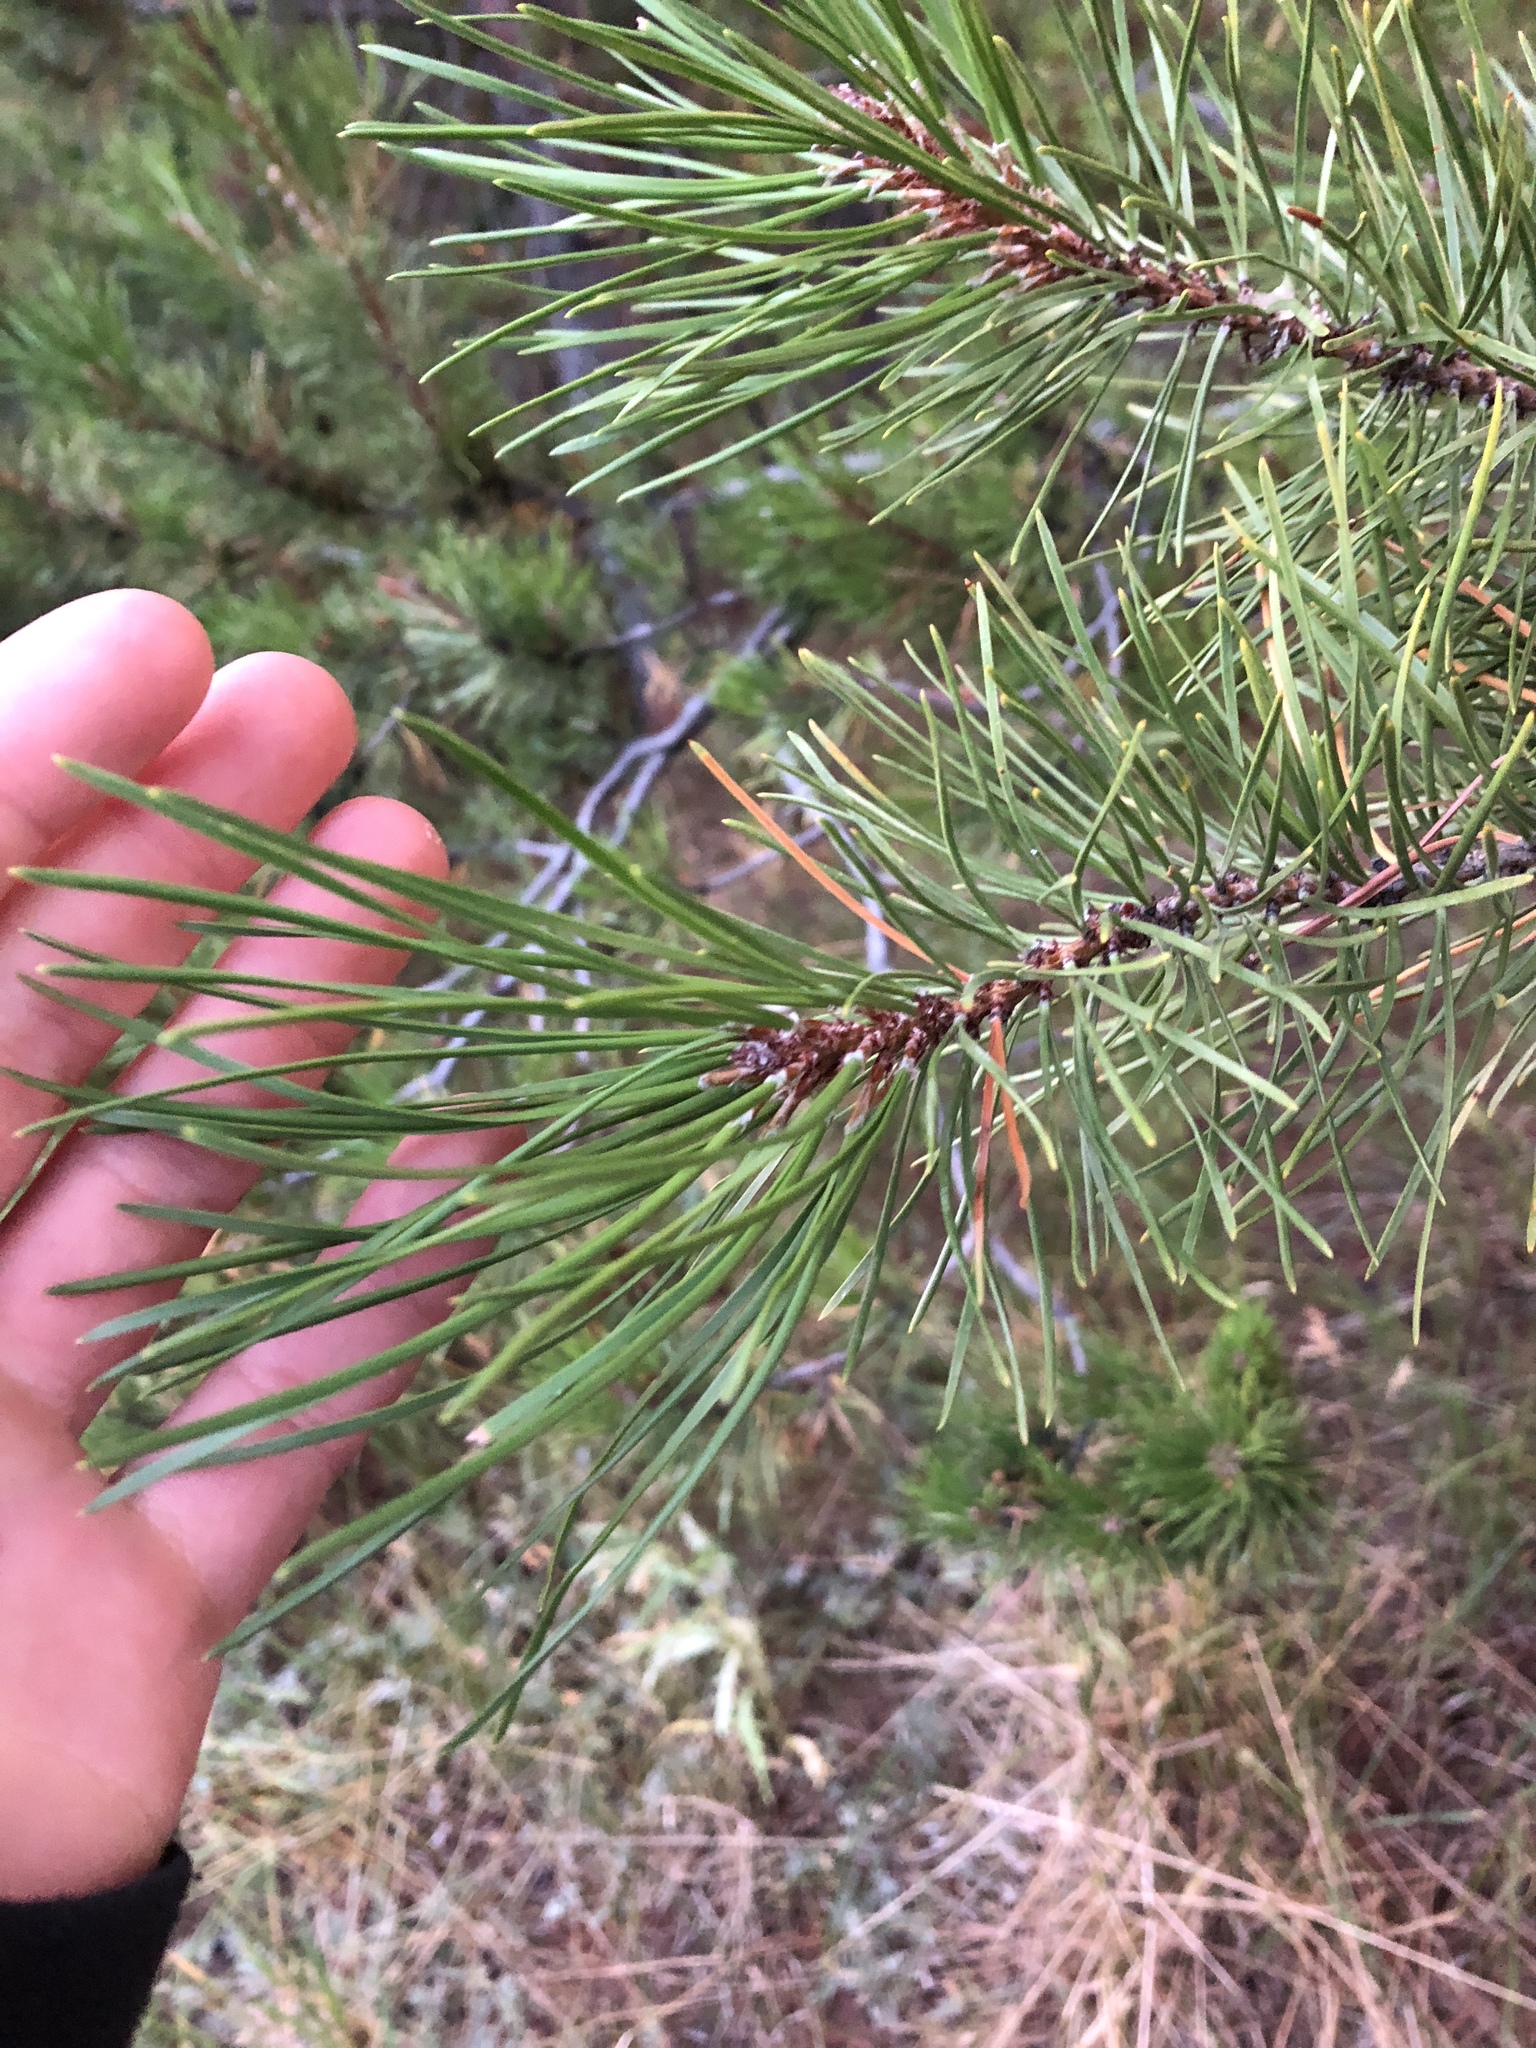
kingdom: Plantae
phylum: Tracheophyta
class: Pinopsida
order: Pinales
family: Pinaceae
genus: Pinus
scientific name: Pinus contorta
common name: Lodgepole pine
